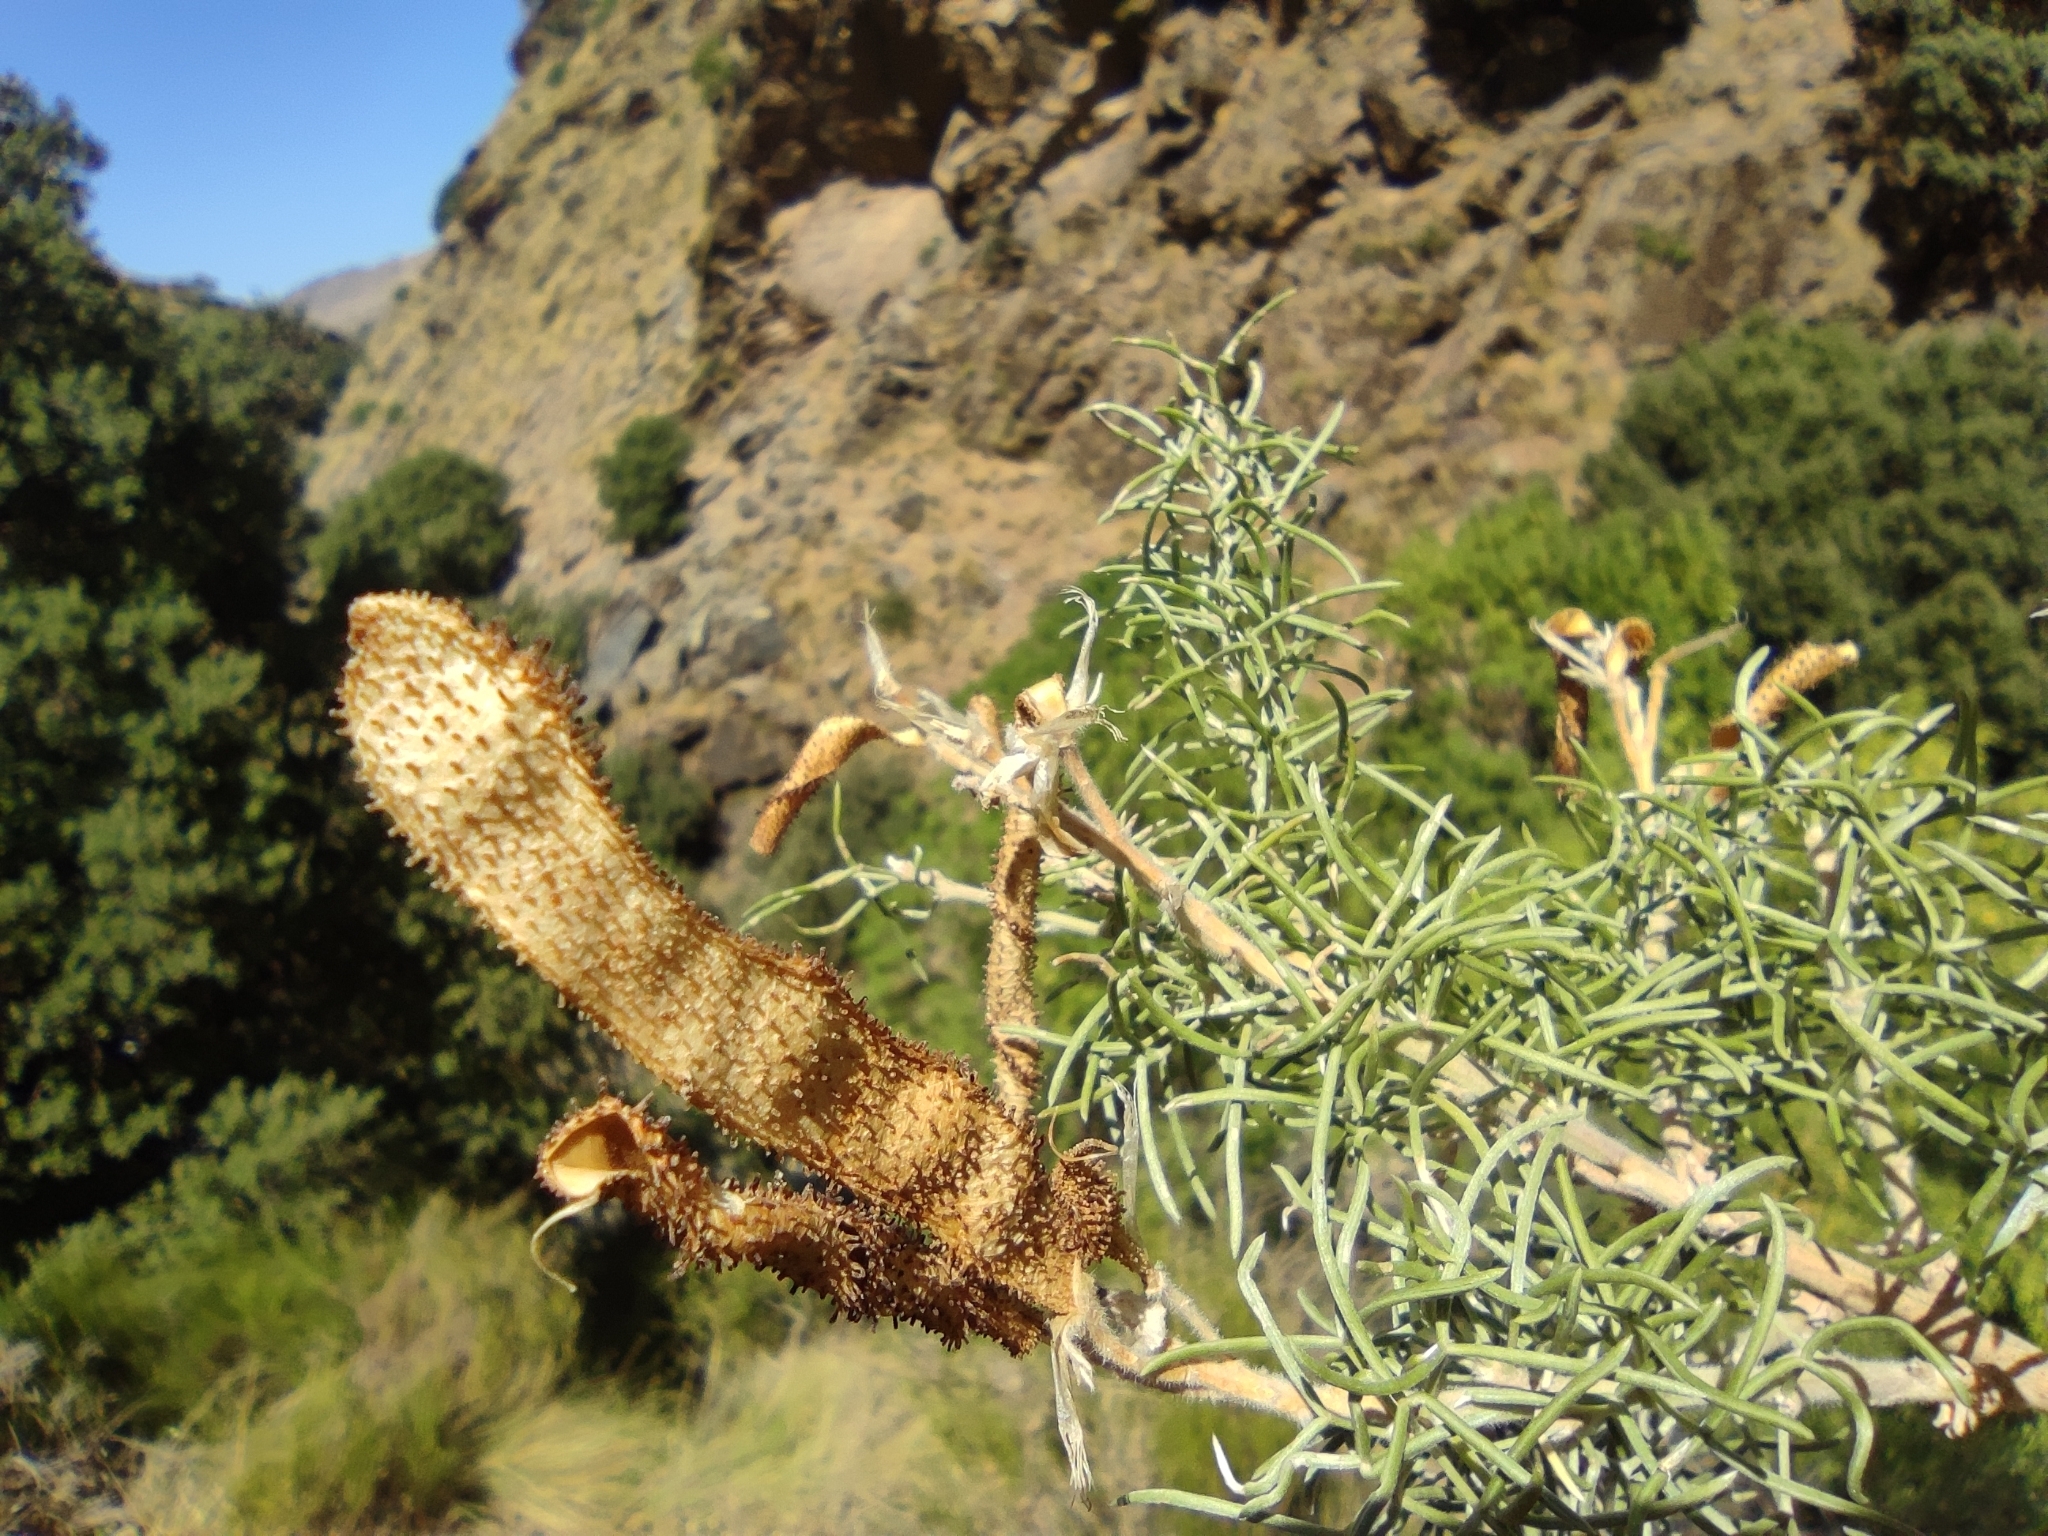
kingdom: Plantae
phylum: Tracheophyta
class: Magnoliopsida
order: Fabales
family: Fabaceae
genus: Adenocarpus
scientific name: Adenocarpus decorticans
